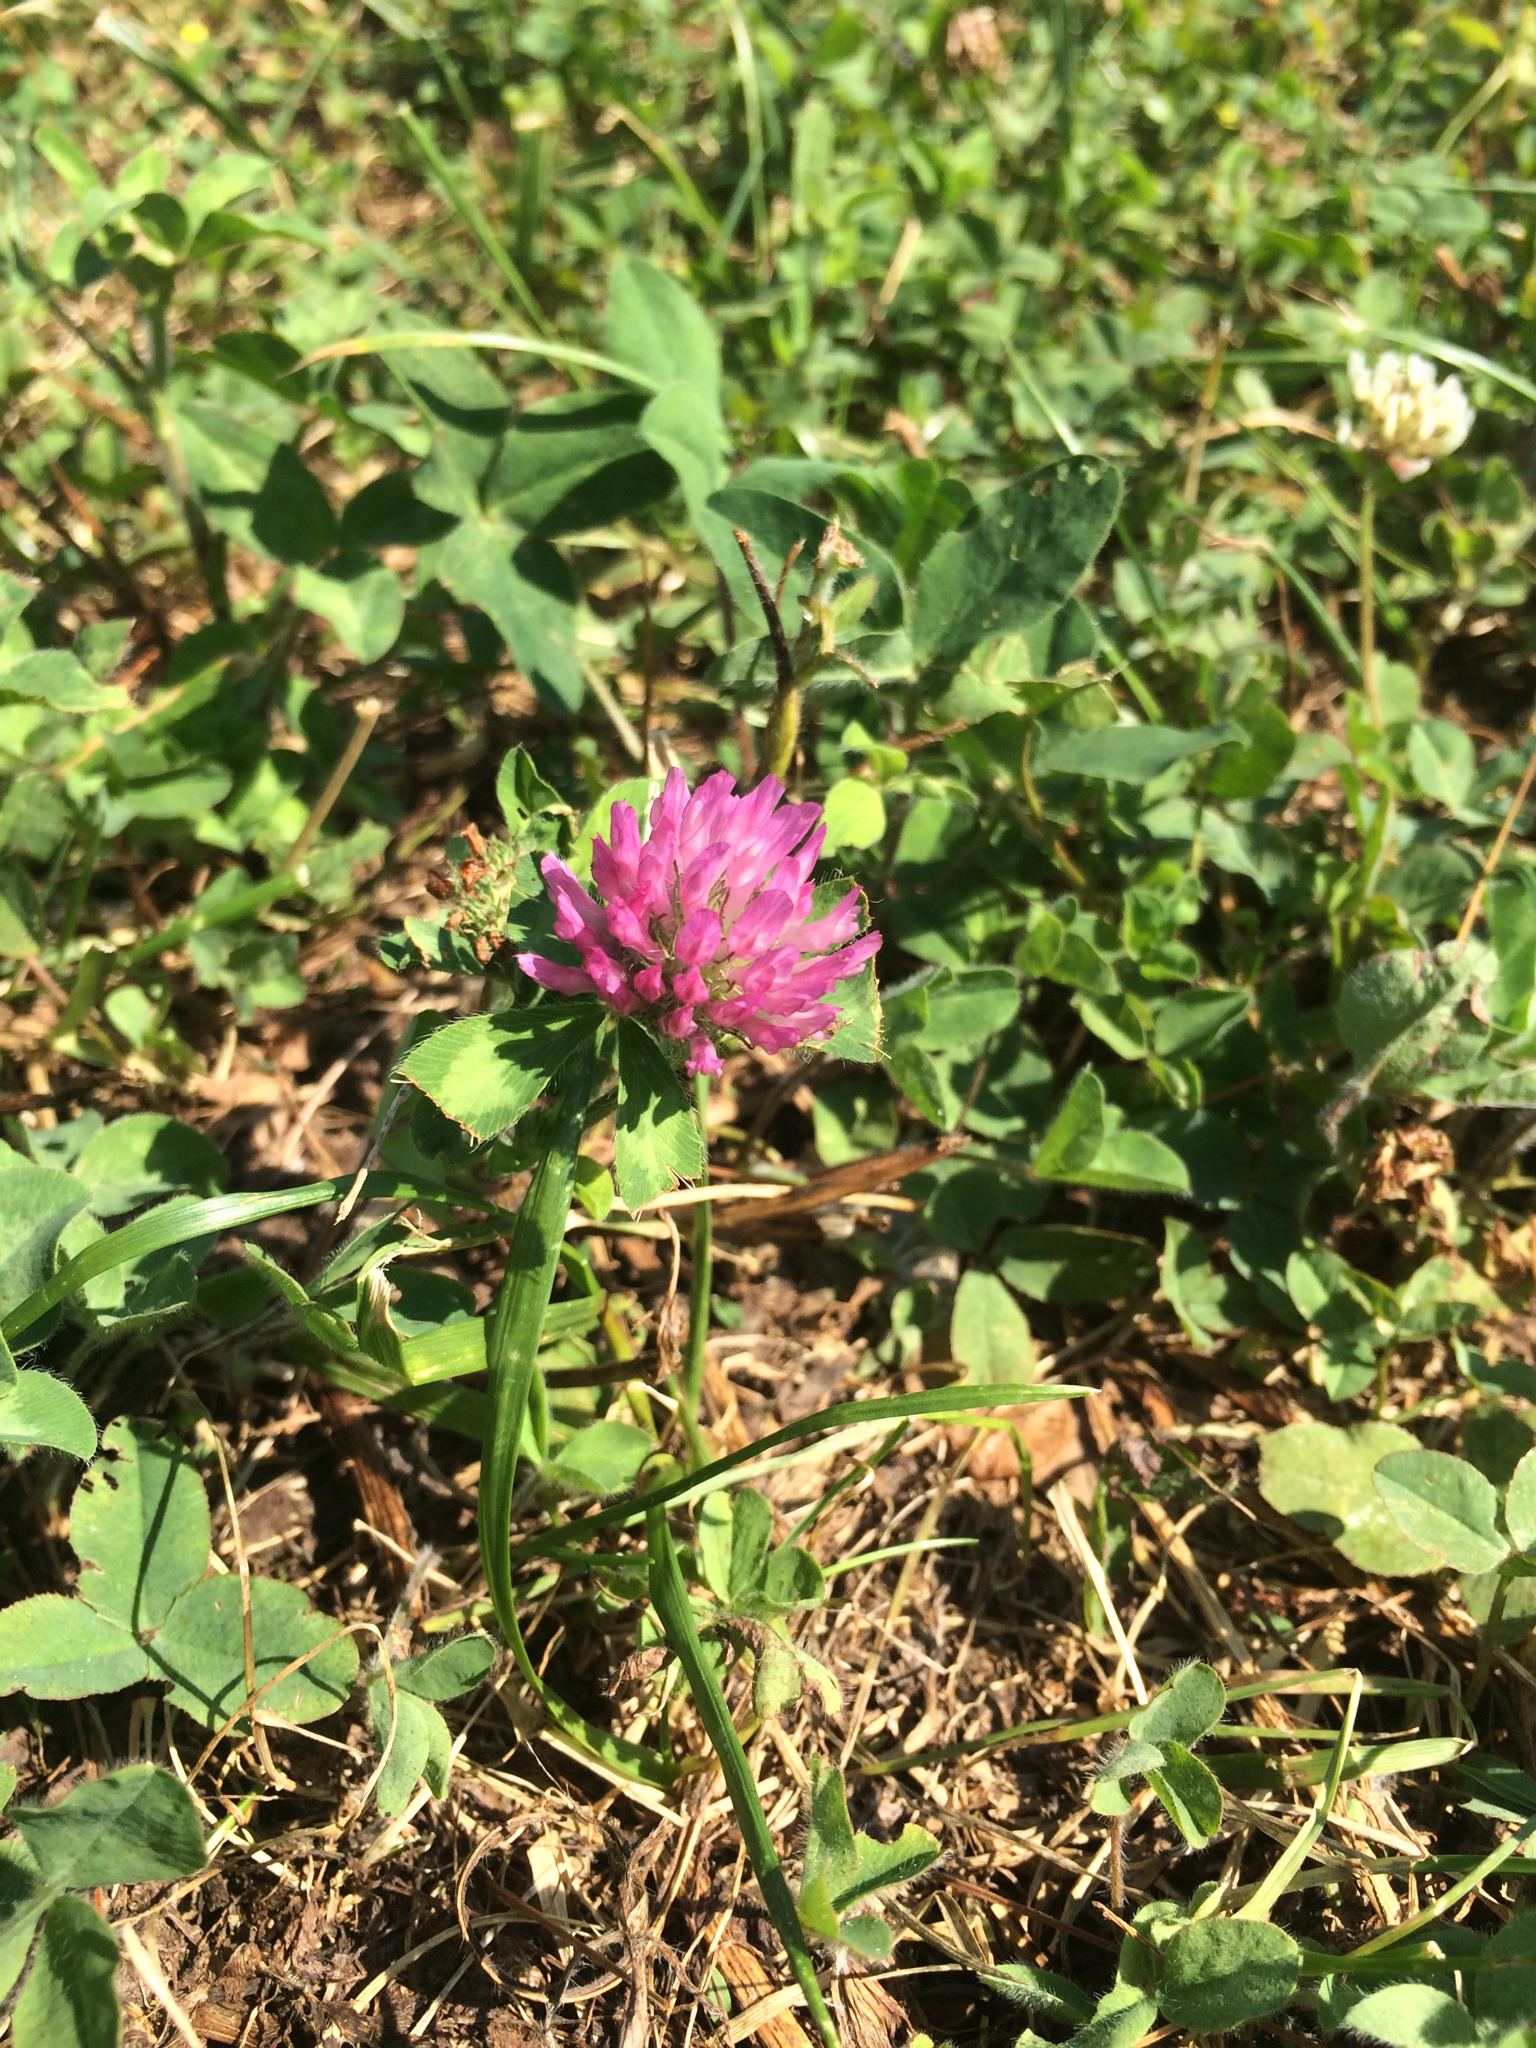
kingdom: Plantae
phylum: Tracheophyta
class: Magnoliopsida
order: Fabales
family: Fabaceae
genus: Trifolium
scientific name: Trifolium pratense
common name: Red clover
